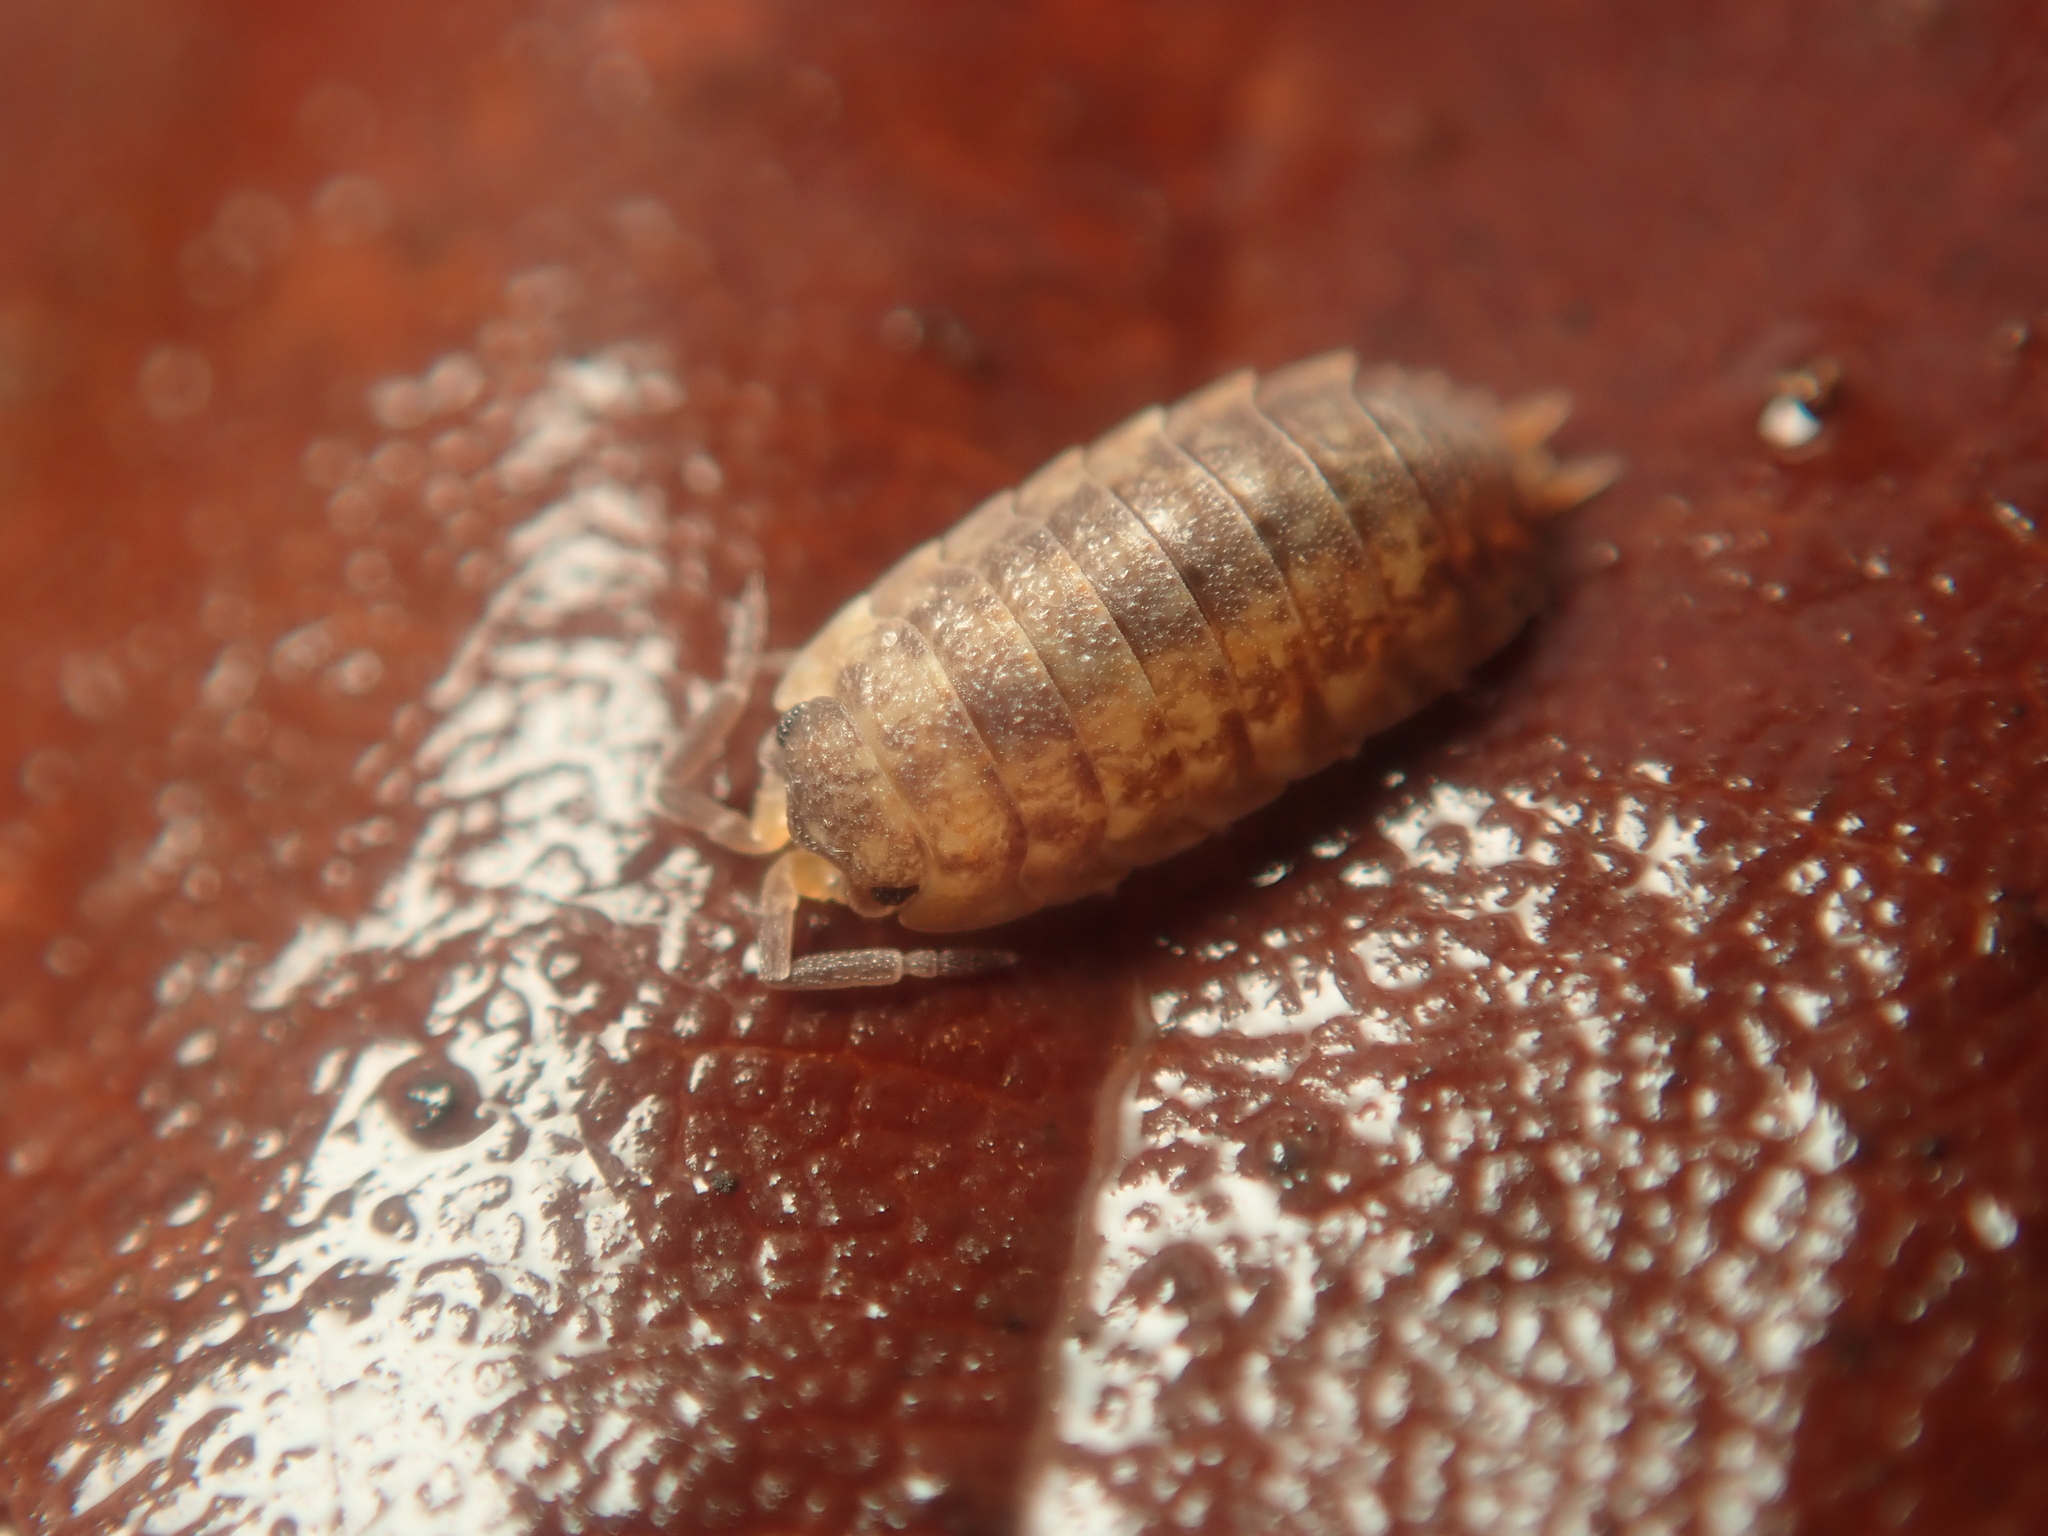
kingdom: Animalia
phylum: Arthropoda
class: Malacostraca
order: Isopoda
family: Porcellionidae
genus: Porcellio
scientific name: Porcellio scaber
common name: Common rough woodlouse
